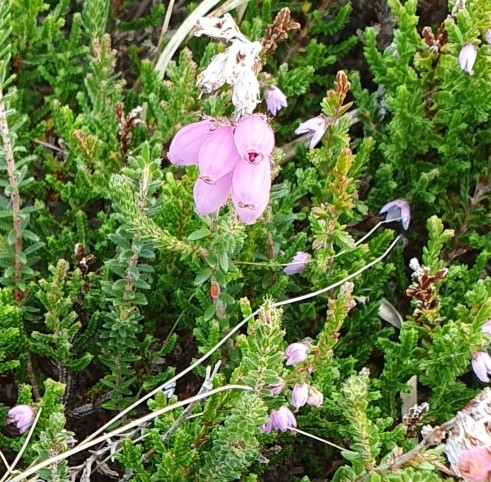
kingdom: Plantae
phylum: Tracheophyta
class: Magnoliopsida
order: Ericales
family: Ericaceae
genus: Erica
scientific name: Erica tetralix
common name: Cross-leaved heath
